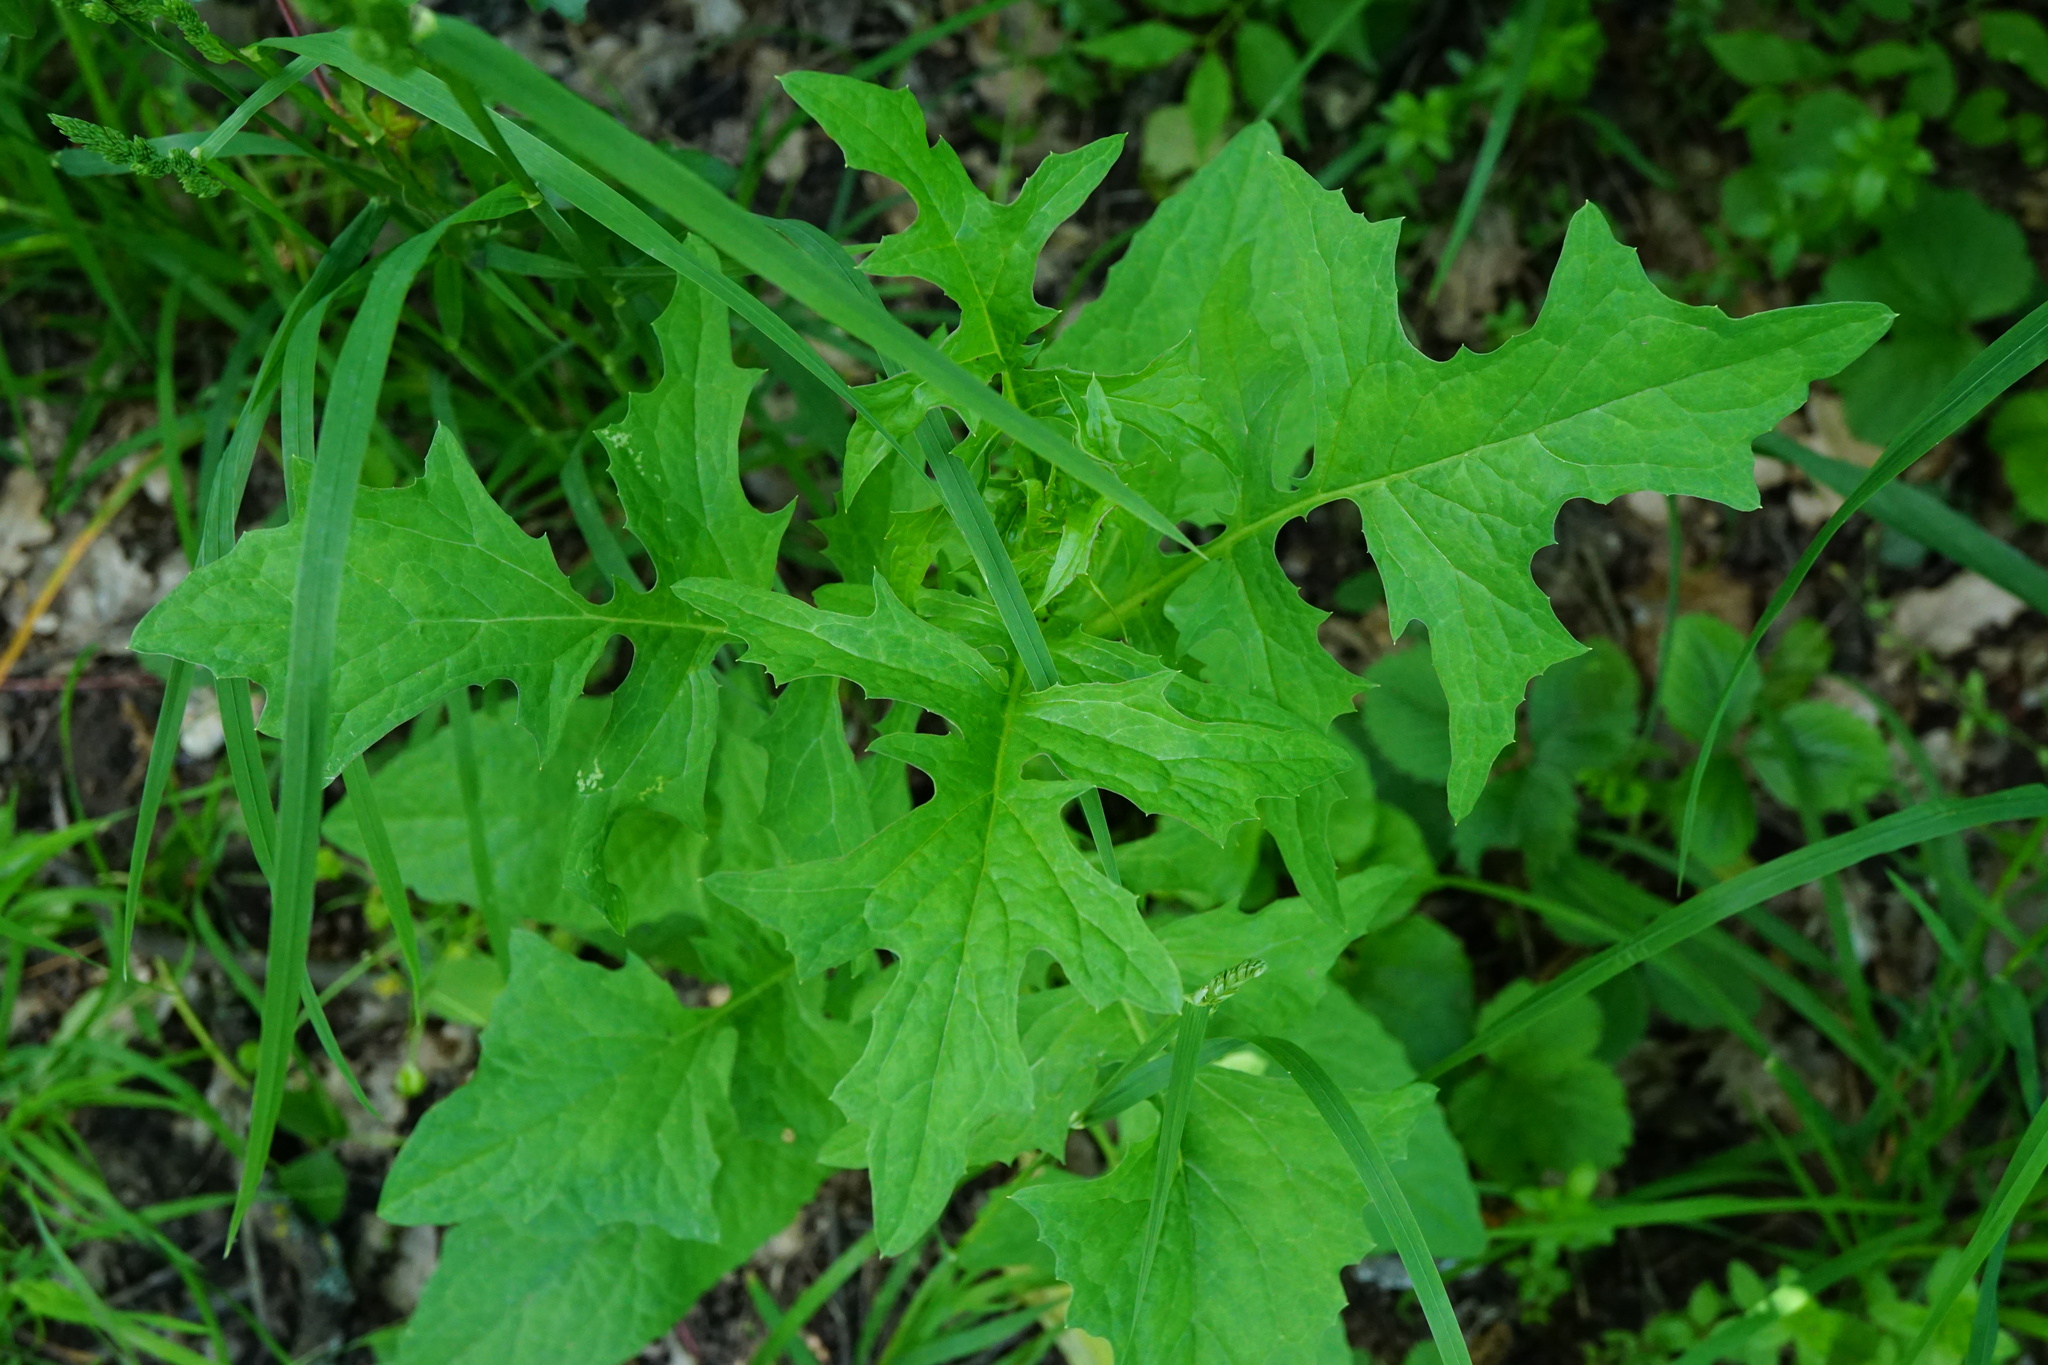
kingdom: Plantae
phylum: Tracheophyta
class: Magnoliopsida
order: Asterales
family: Asteraceae
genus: Lactuca
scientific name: Lactuca quercina
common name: Wild lettuce
